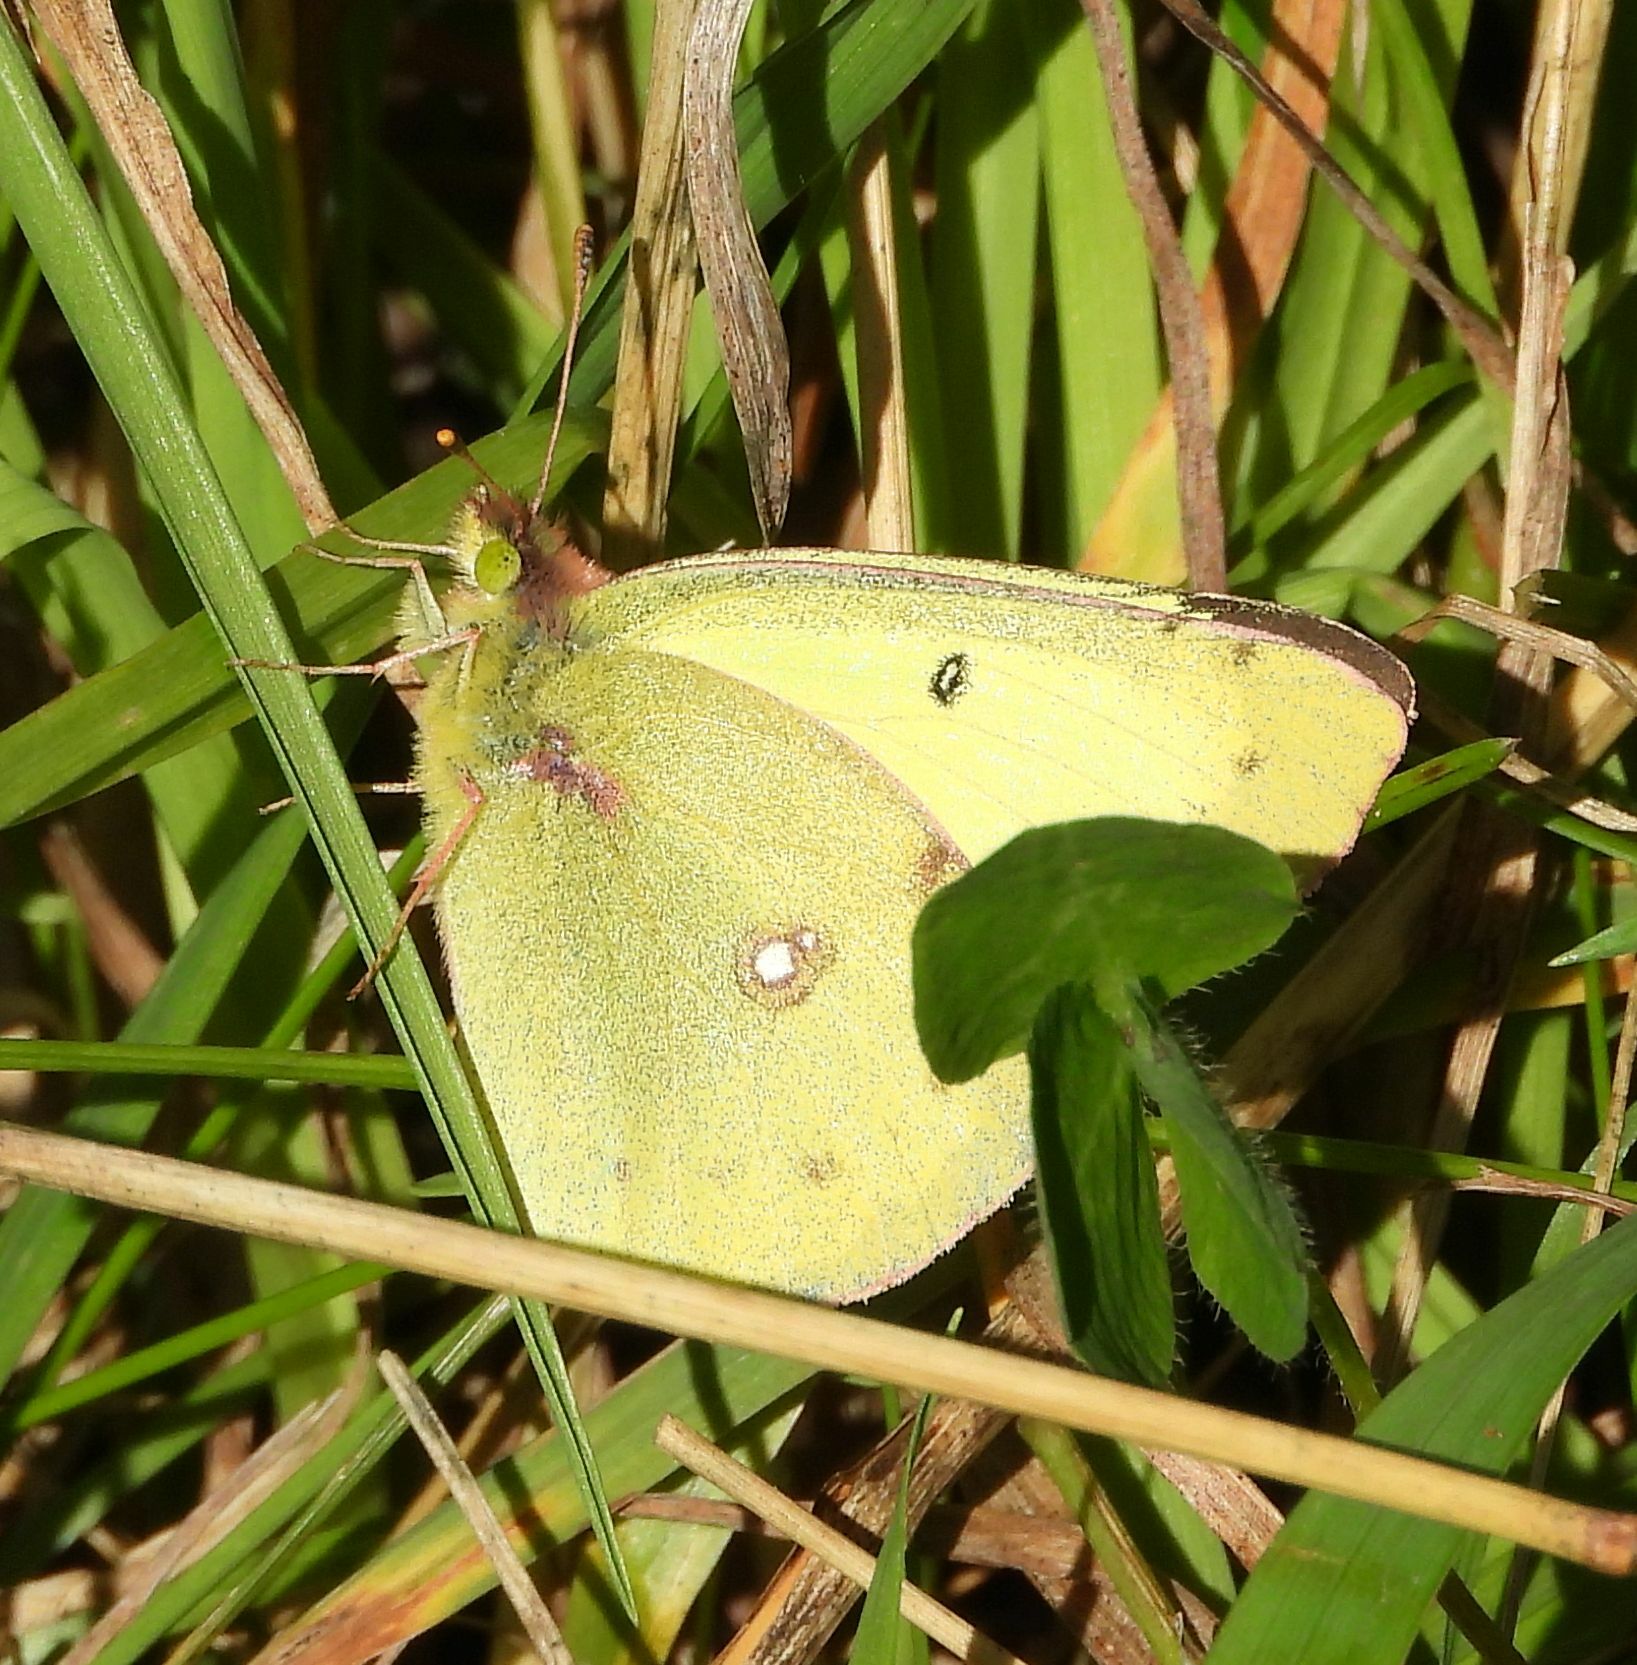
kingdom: Animalia
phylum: Arthropoda
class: Insecta
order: Lepidoptera
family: Pieridae
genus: Colias
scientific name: Colias philodice
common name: Clouded sulphur
